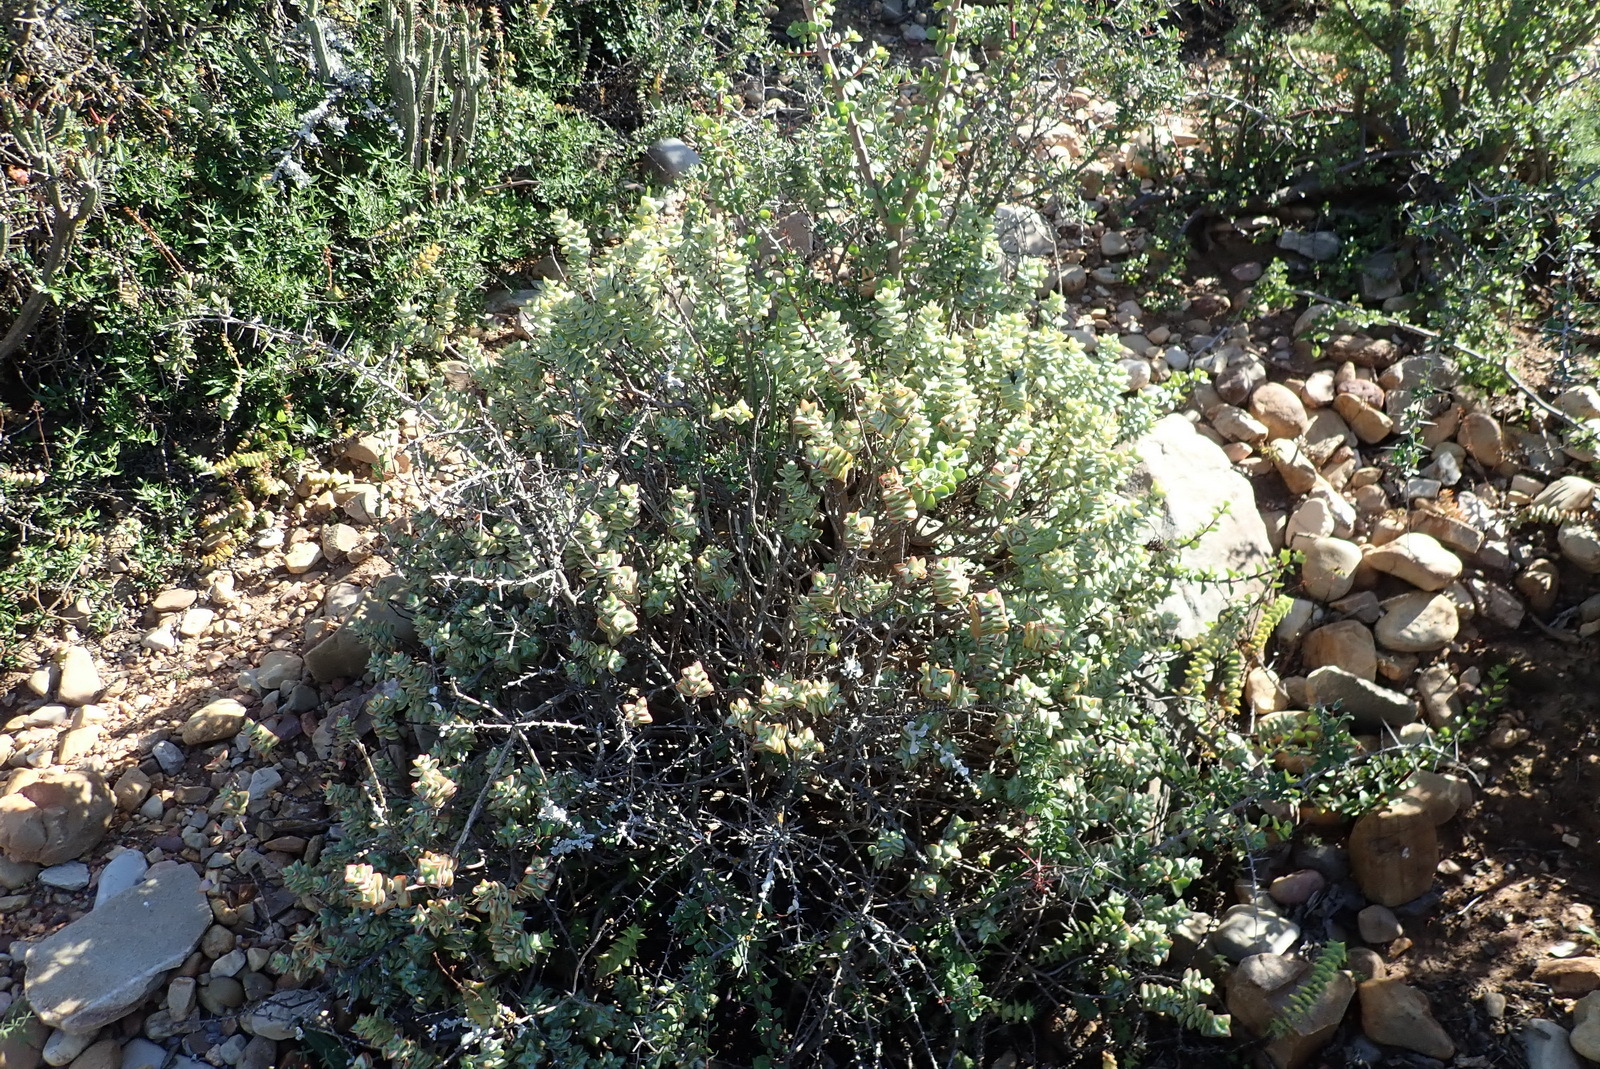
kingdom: Plantae
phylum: Tracheophyta
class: Magnoliopsida
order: Saxifragales
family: Crassulaceae
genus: Crassula
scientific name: Crassula rupestris
